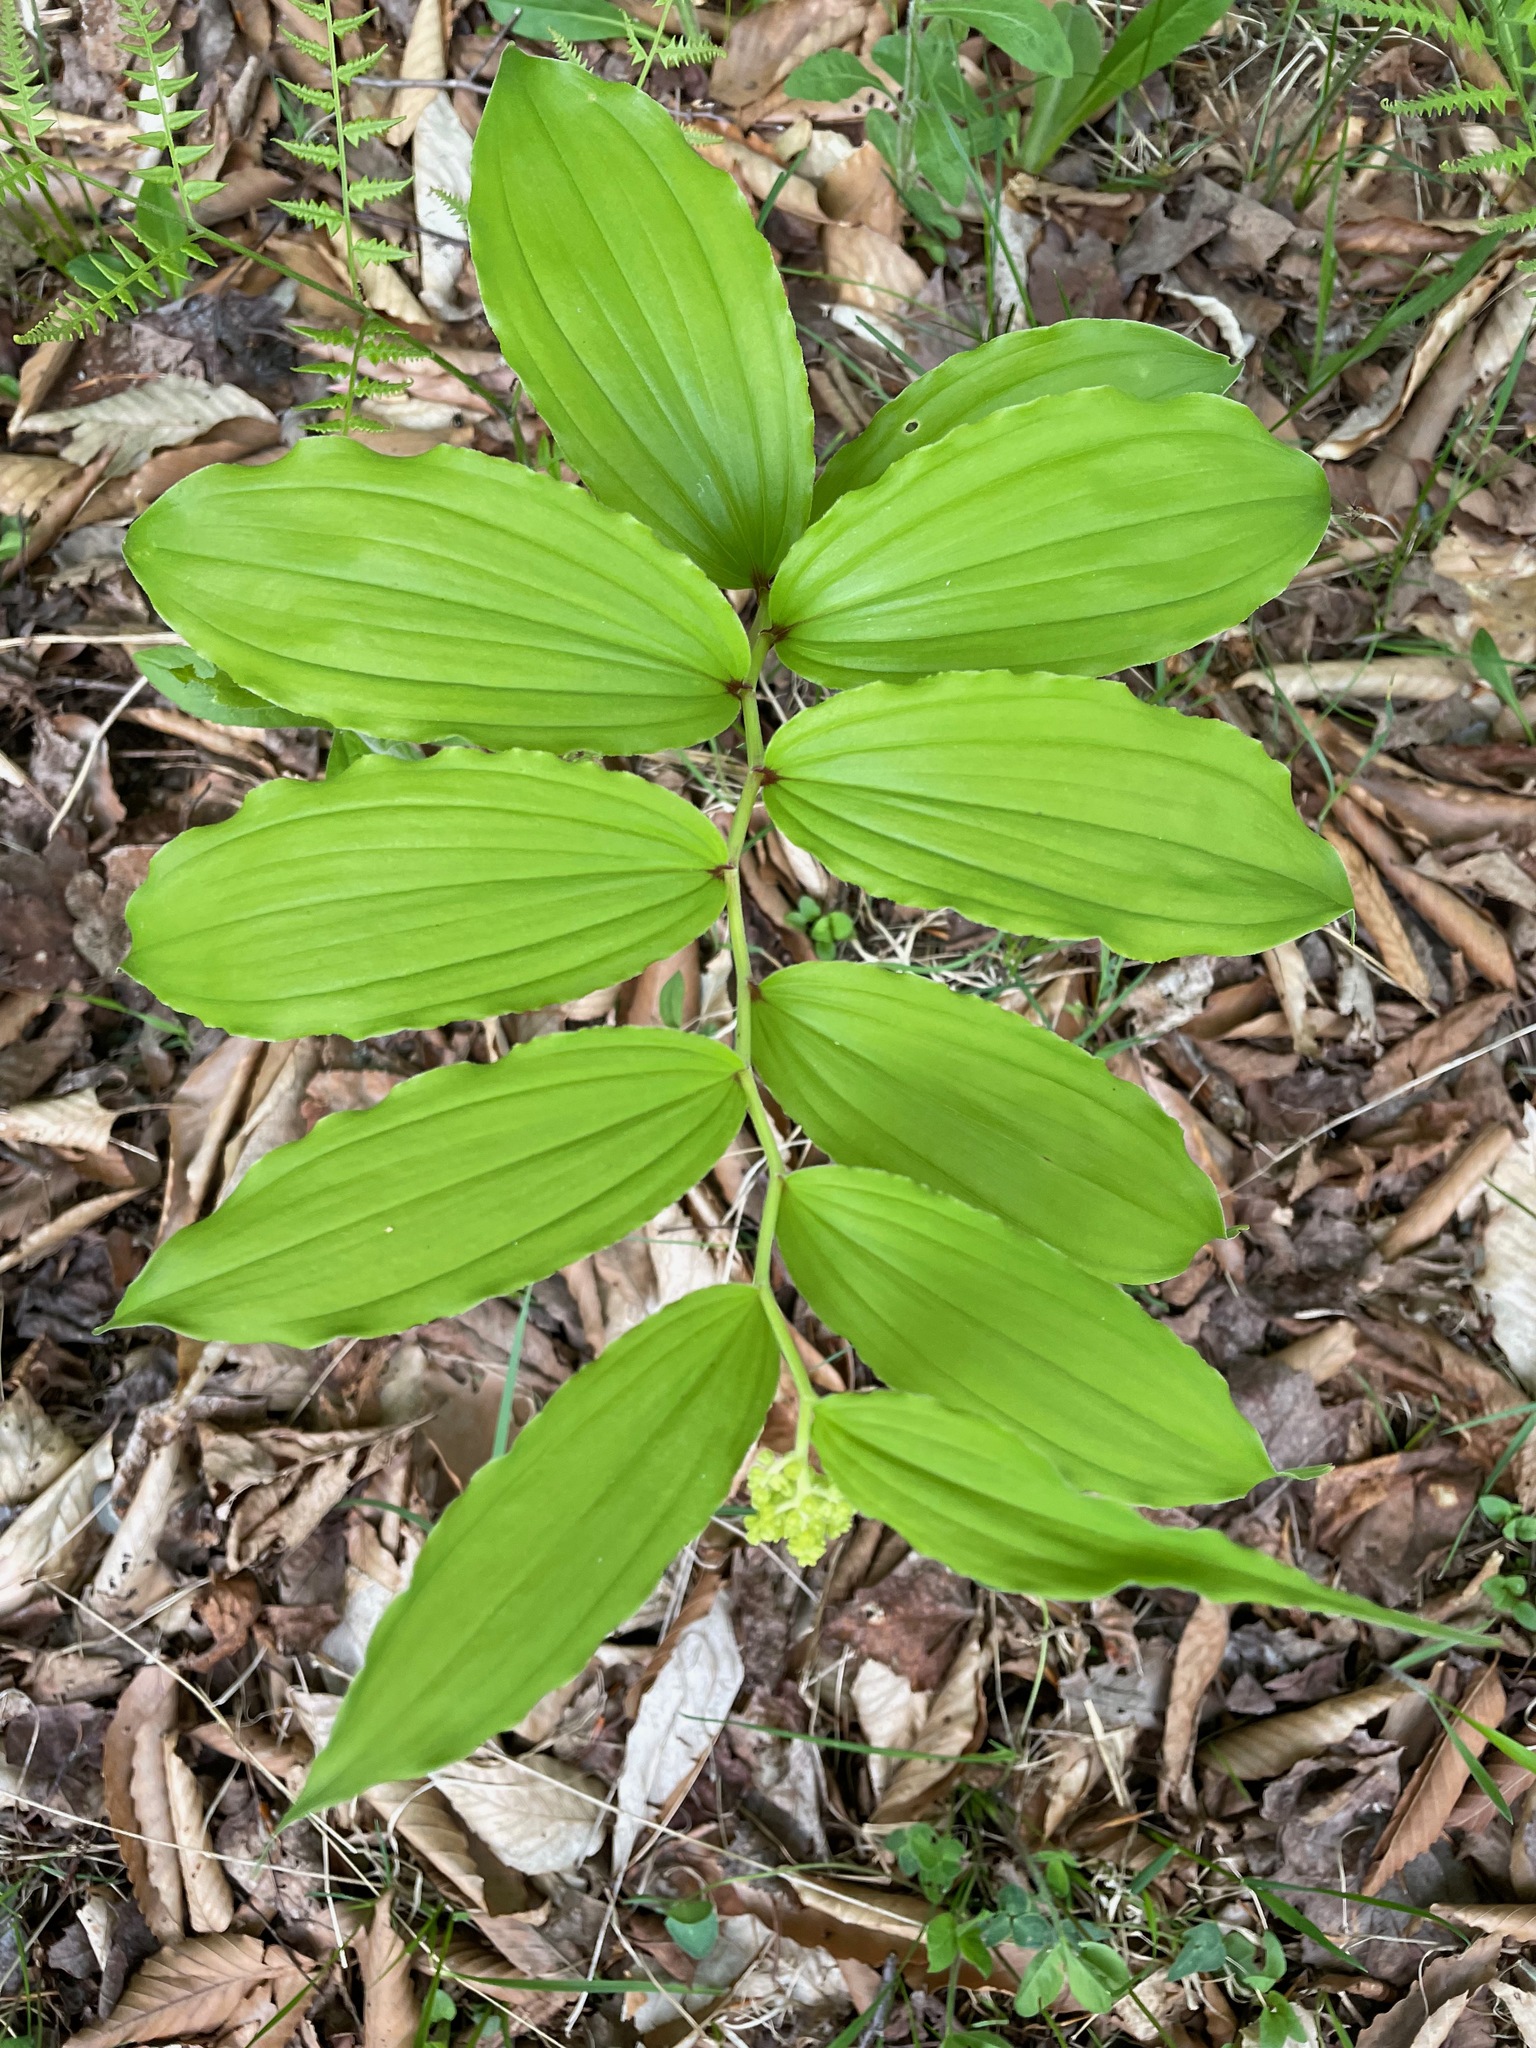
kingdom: Plantae
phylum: Tracheophyta
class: Liliopsida
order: Asparagales
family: Asparagaceae
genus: Maianthemum
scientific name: Maianthemum racemosum
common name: False spikenard
